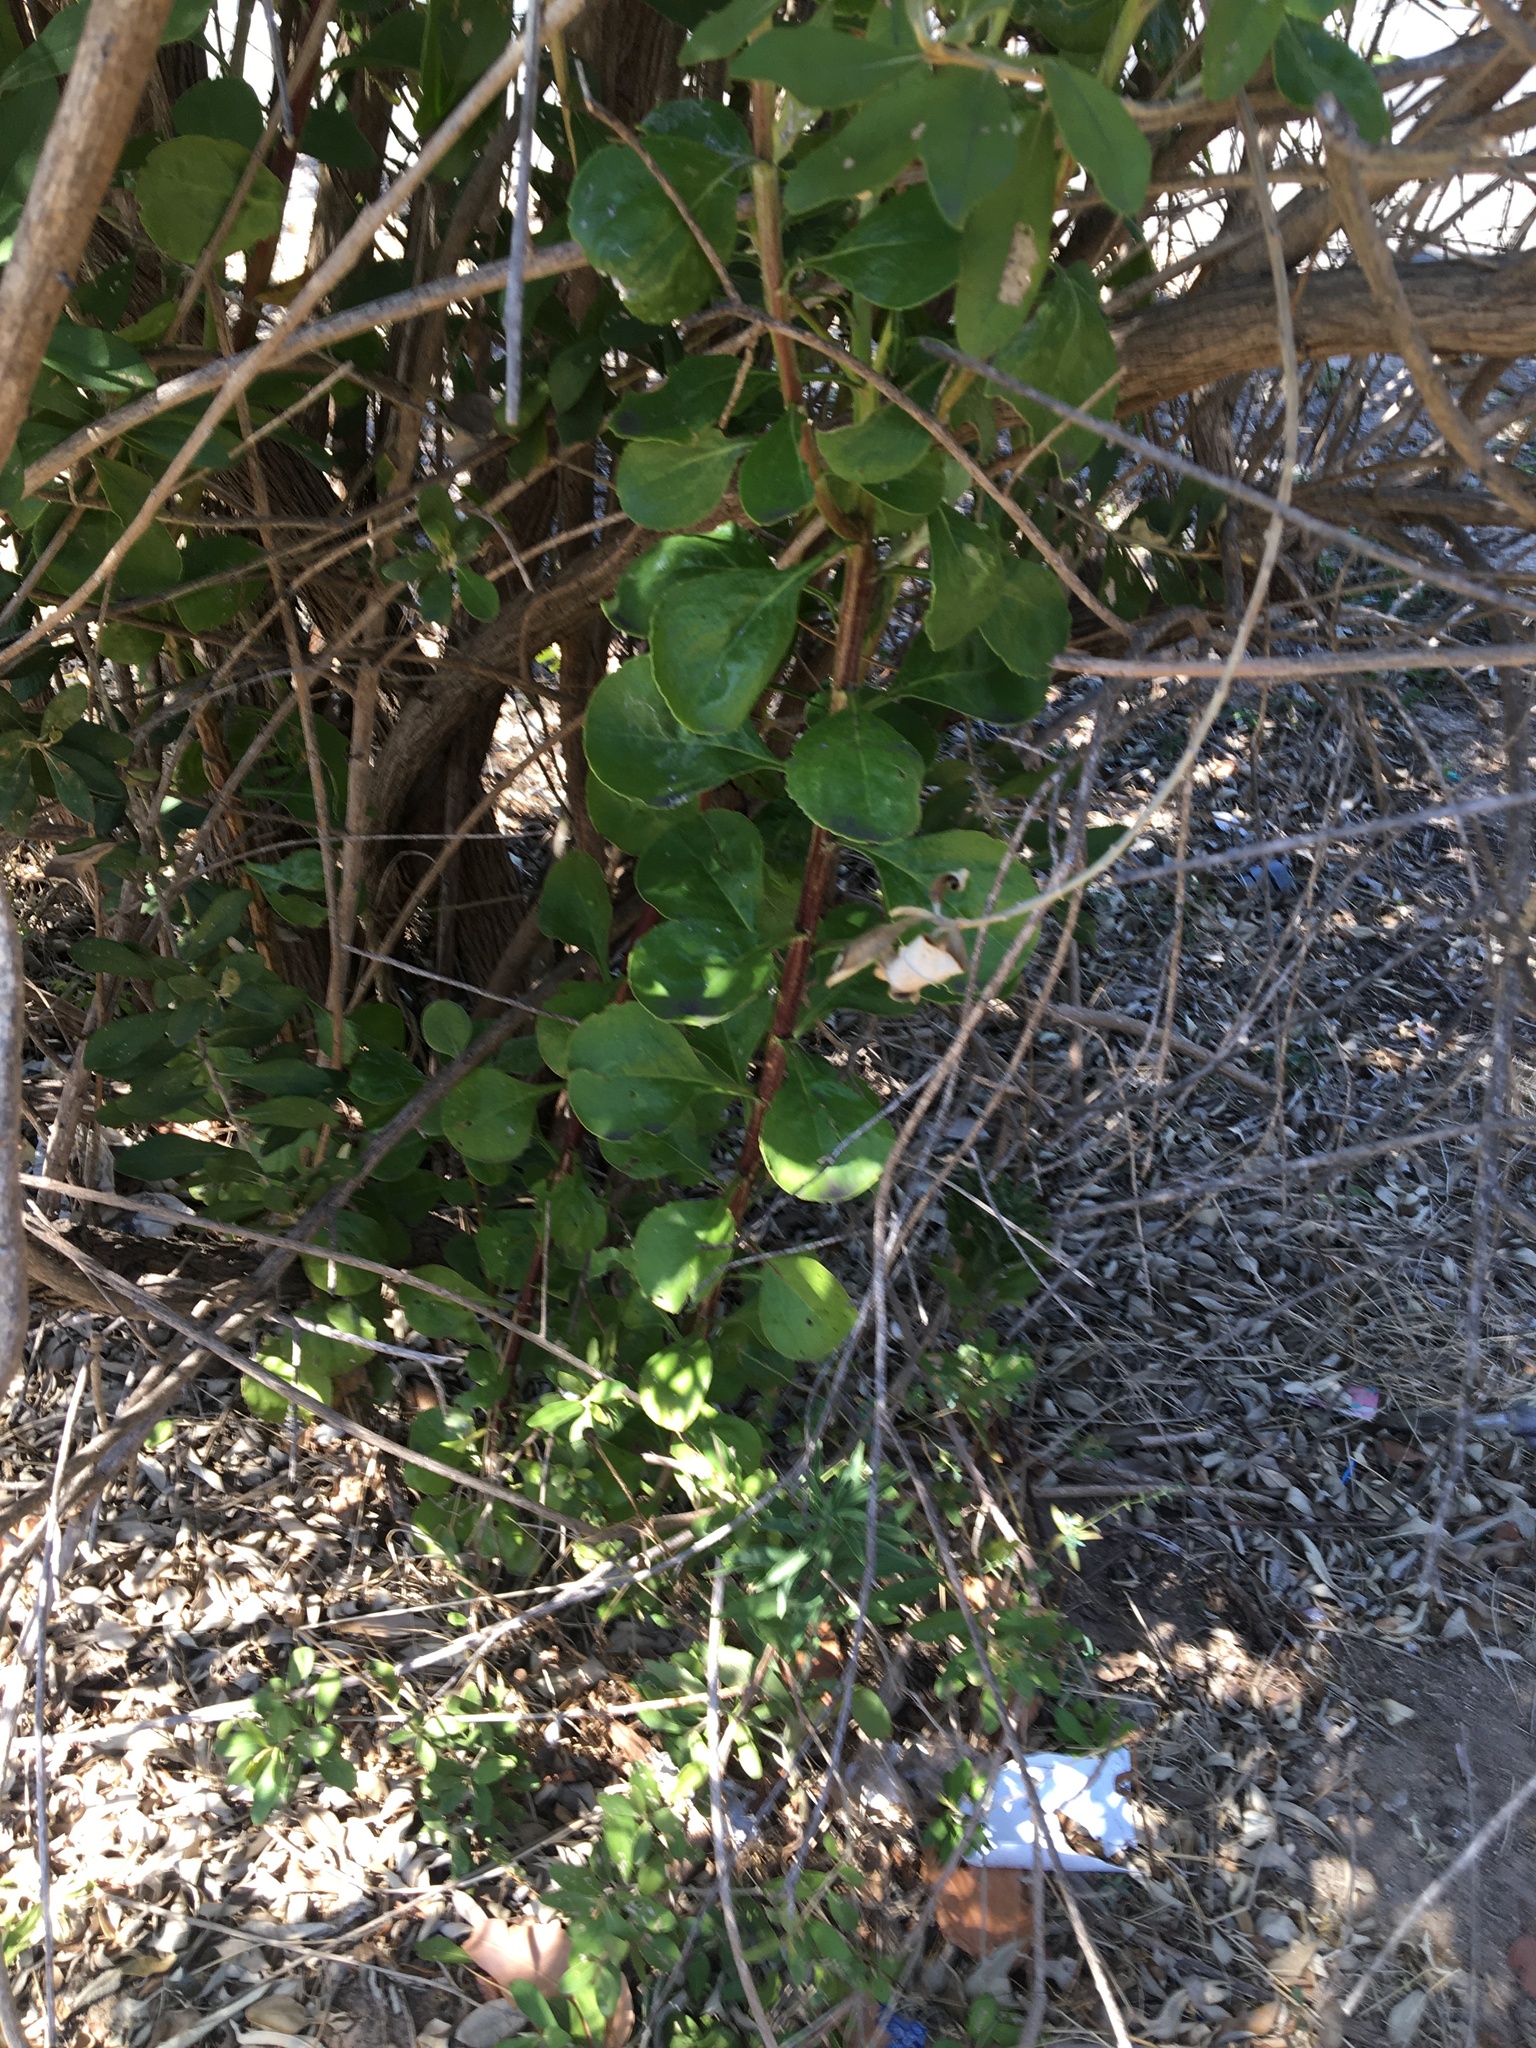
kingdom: Plantae
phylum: Tracheophyta
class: Magnoliopsida
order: Asterales
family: Asteraceae
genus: Osteospermum
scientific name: Osteospermum moniliferum
